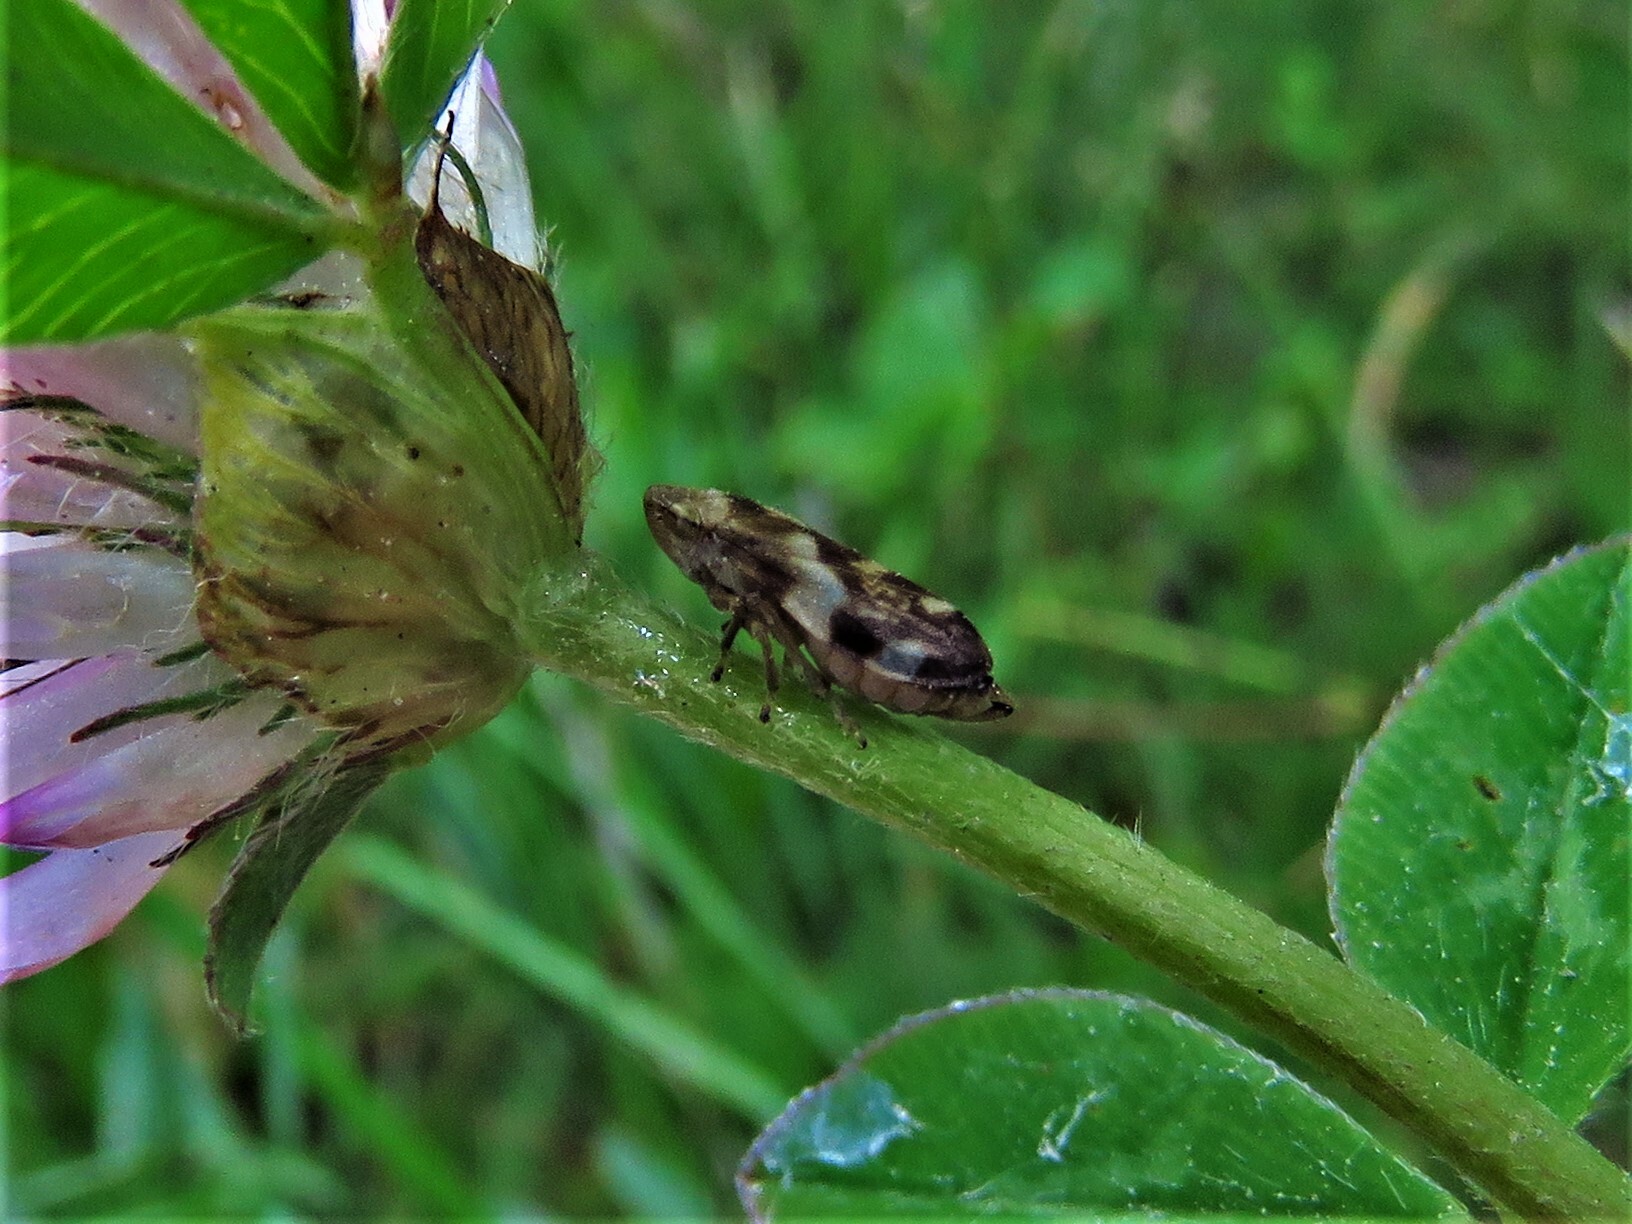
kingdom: Animalia
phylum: Arthropoda
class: Insecta
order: Hemiptera
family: Aphrophoridae
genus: Philaenus
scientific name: Philaenus spumarius
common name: Meadow spittlebug
